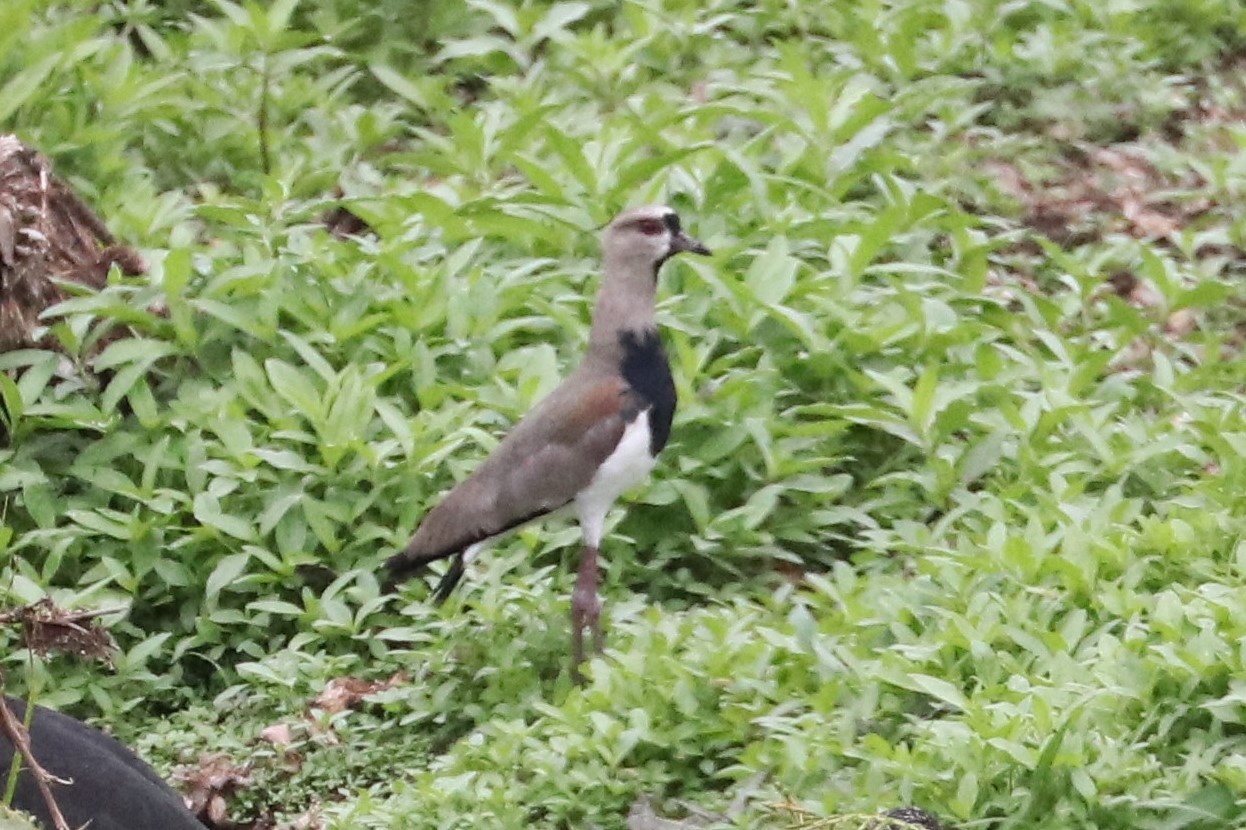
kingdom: Animalia
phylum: Chordata
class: Aves
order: Charadriiformes
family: Charadriidae
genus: Vanellus
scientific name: Vanellus chilensis
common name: Southern lapwing
